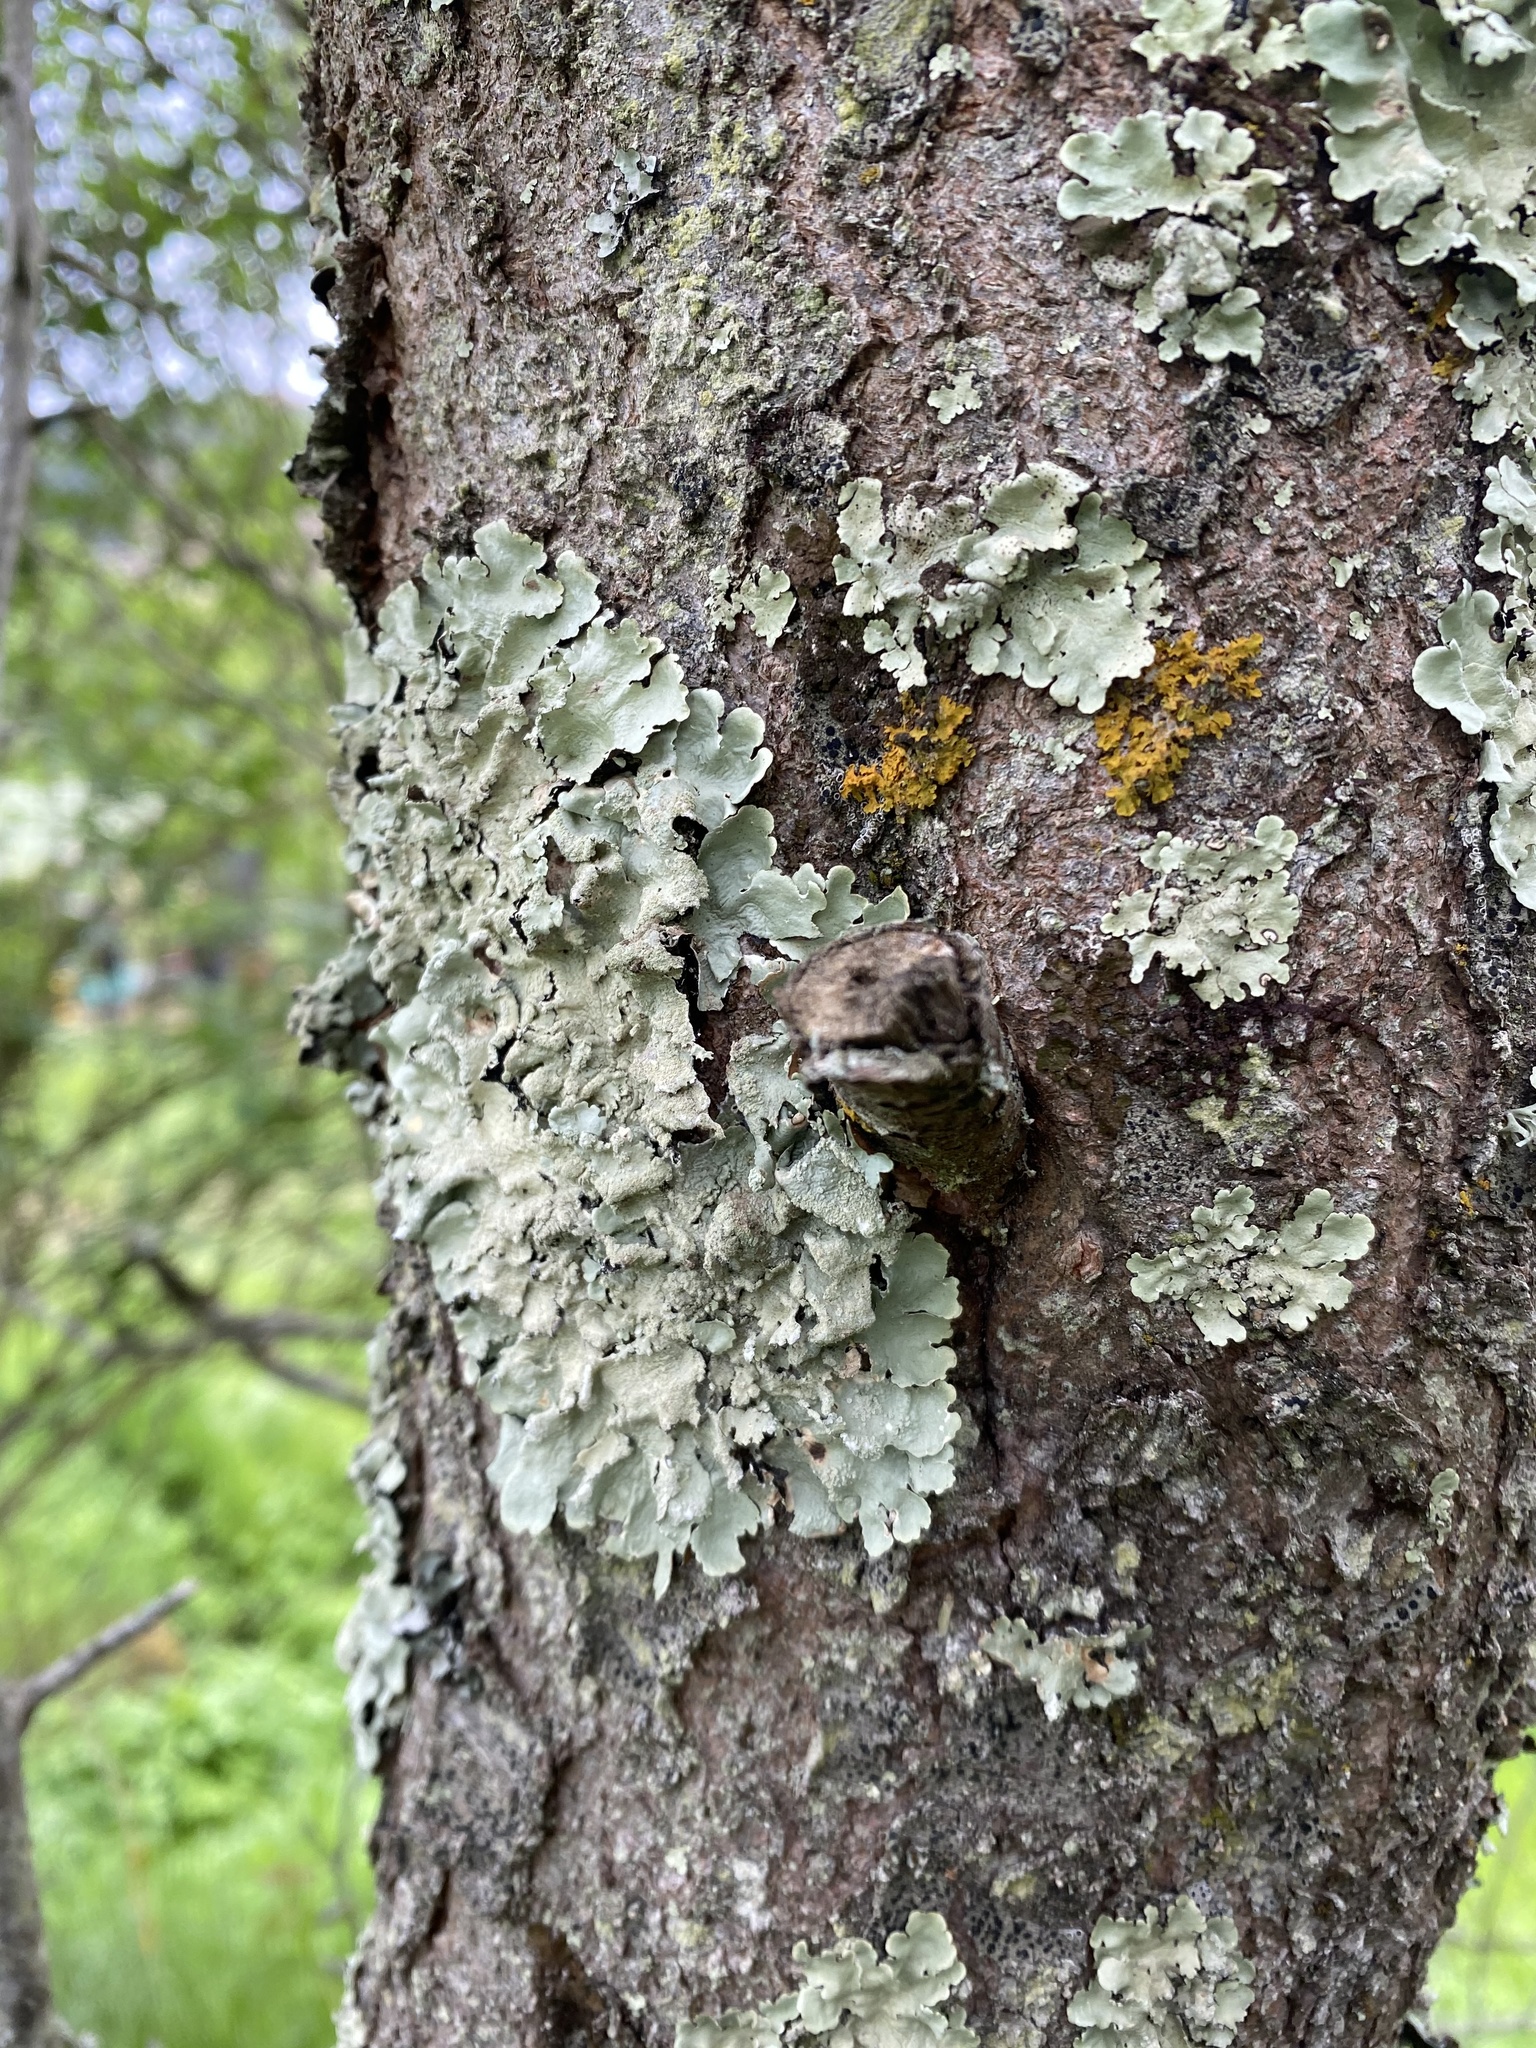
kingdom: Fungi
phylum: Ascomycota
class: Lecanoromycetes
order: Lecanorales
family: Parmeliaceae
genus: Flavoparmelia
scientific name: Flavoparmelia caperata
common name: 40-mile per hour lichen
